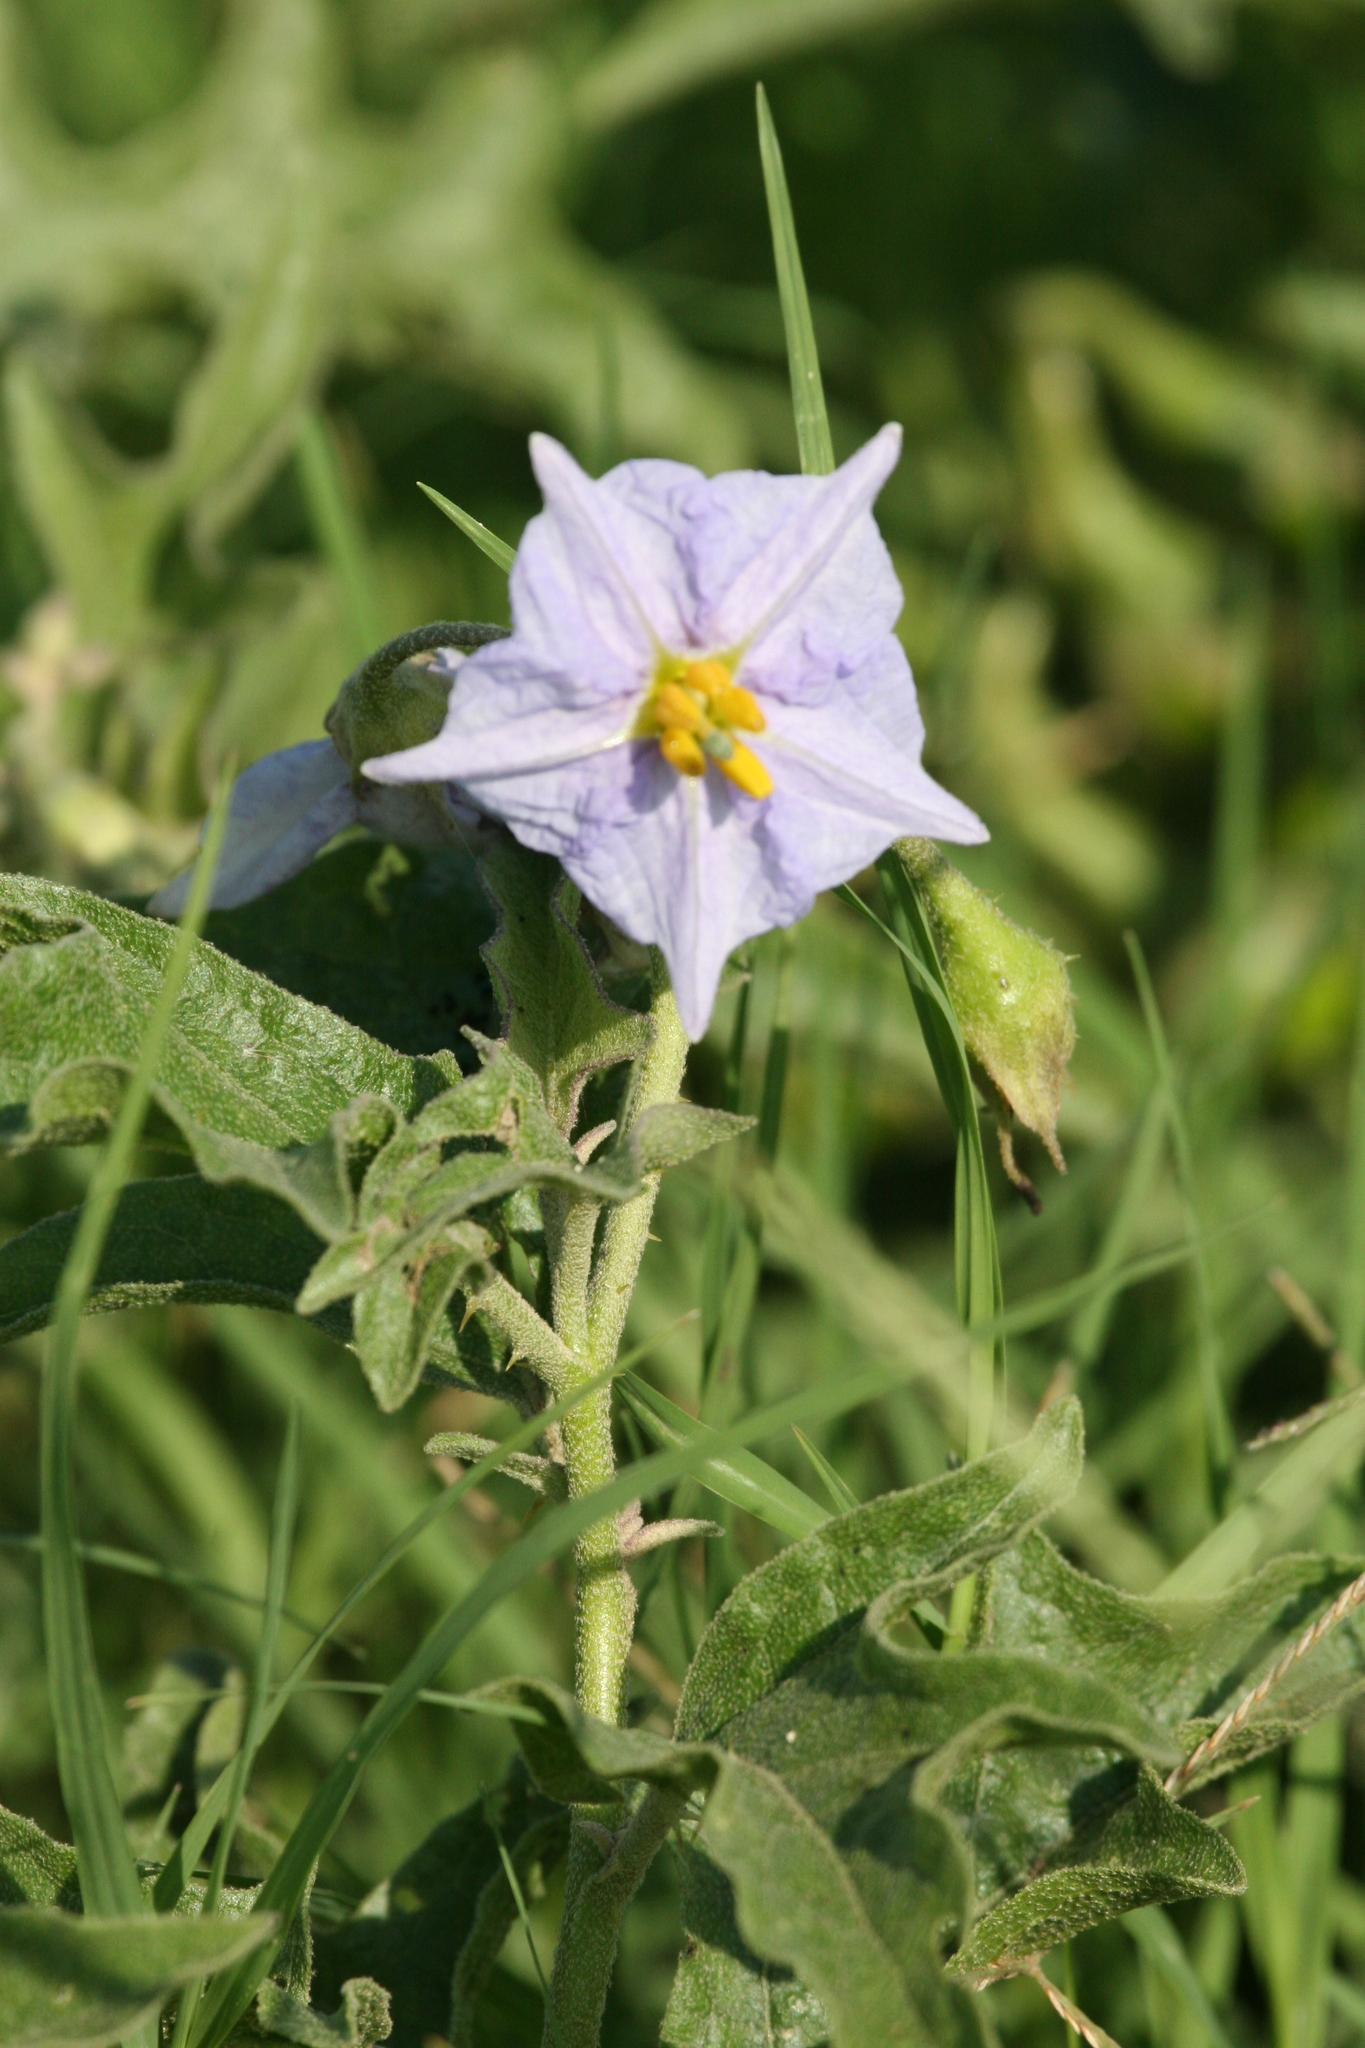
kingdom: Plantae
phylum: Tracheophyta
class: Magnoliopsida
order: Solanales
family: Solanaceae
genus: Solanum
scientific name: Solanum dimidiatum
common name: Carolina horse-nettle
